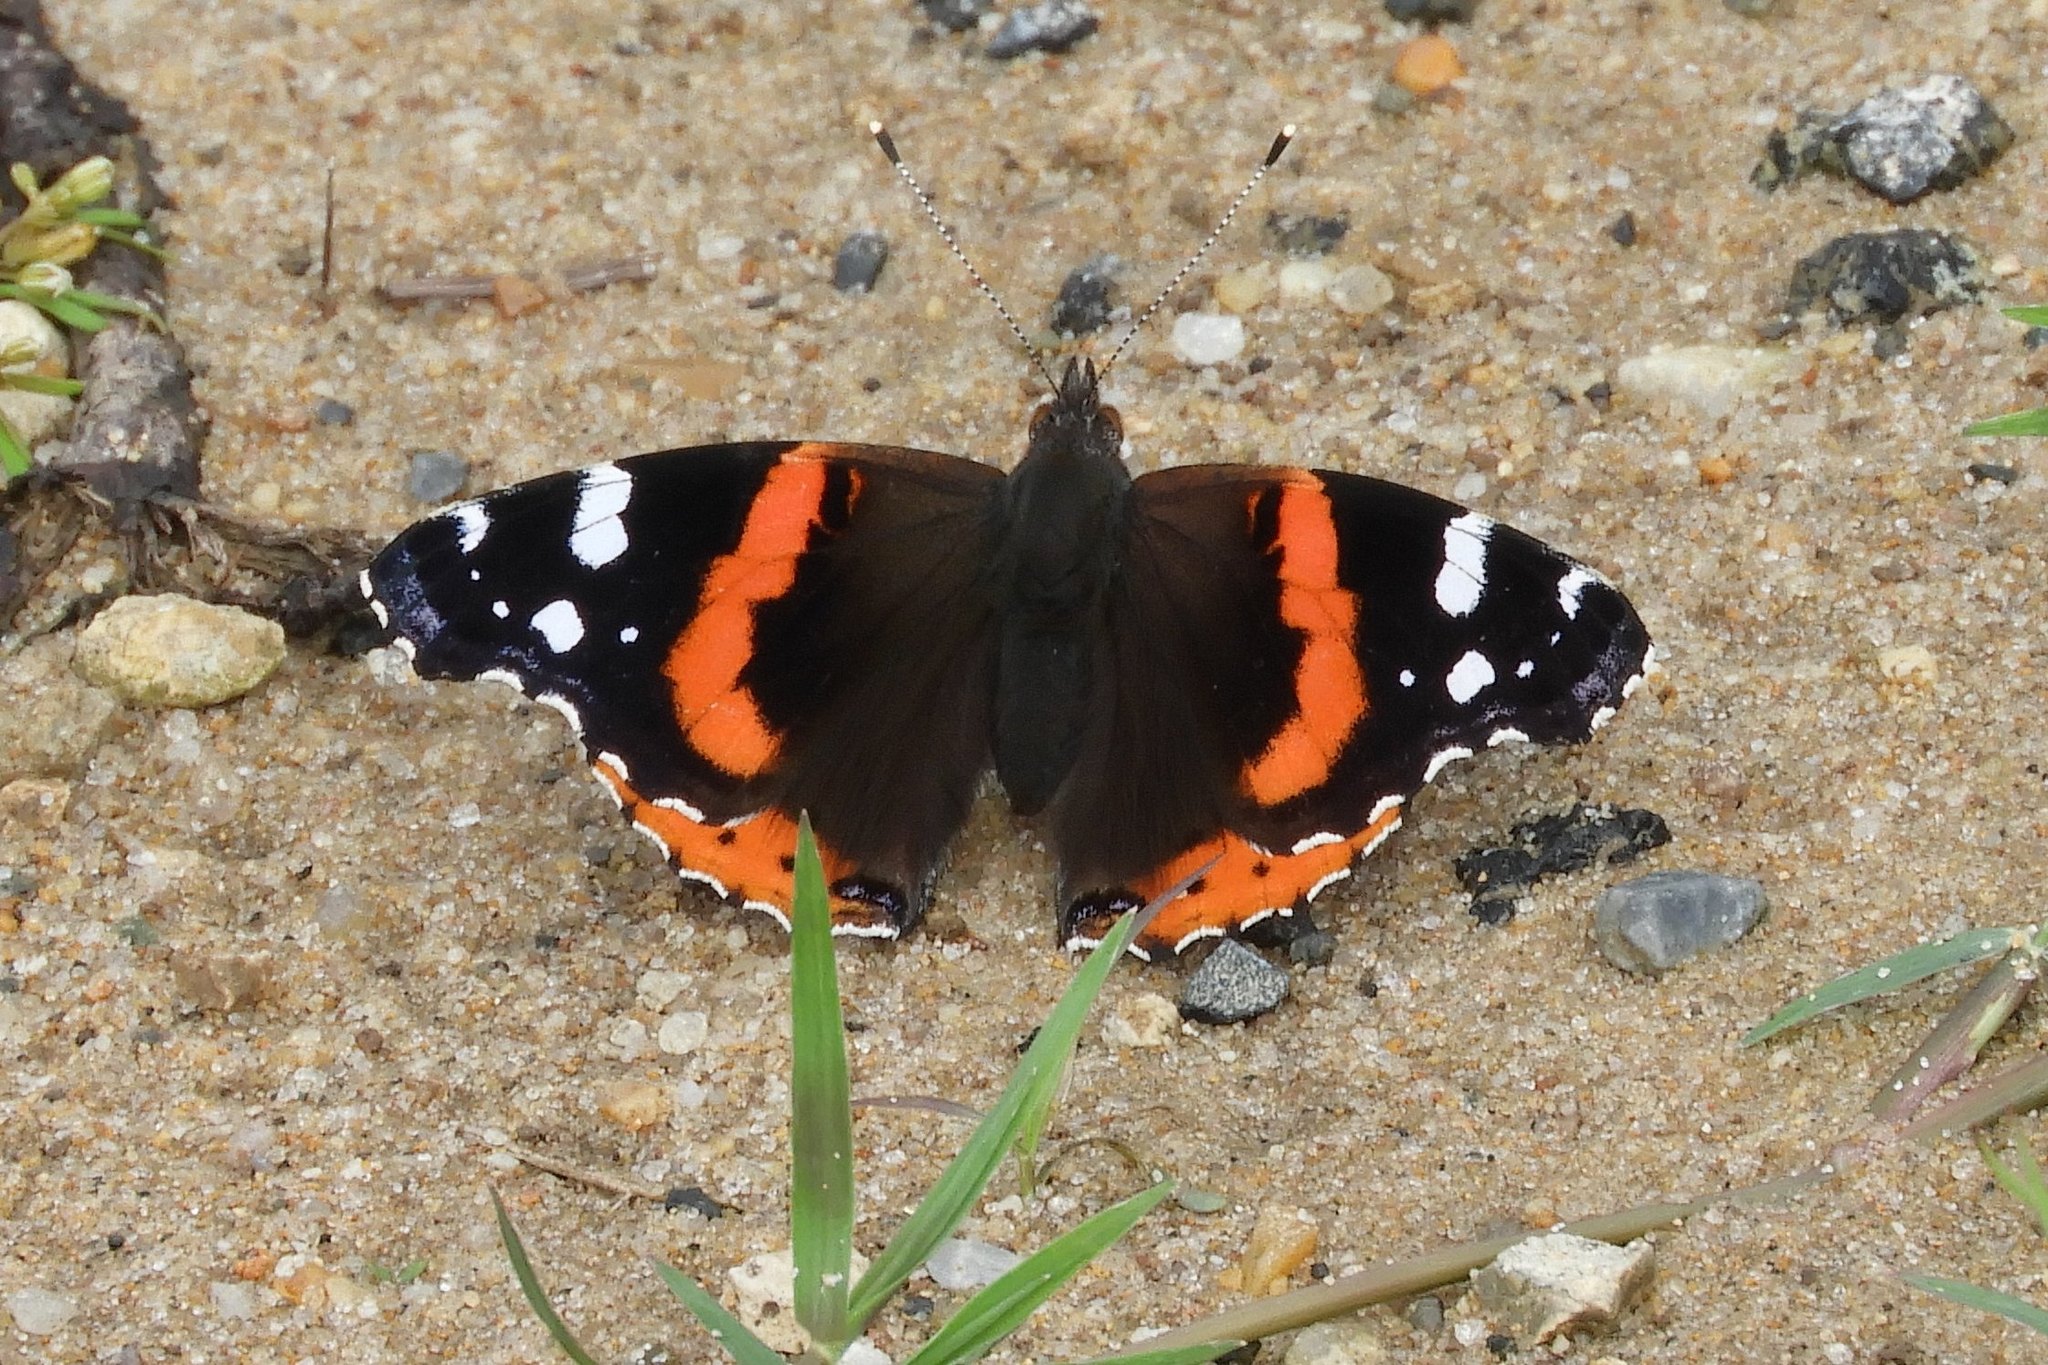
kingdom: Animalia
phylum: Arthropoda
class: Insecta
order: Lepidoptera
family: Nymphalidae
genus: Vanessa
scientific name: Vanessa atalanta
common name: Red admiral
